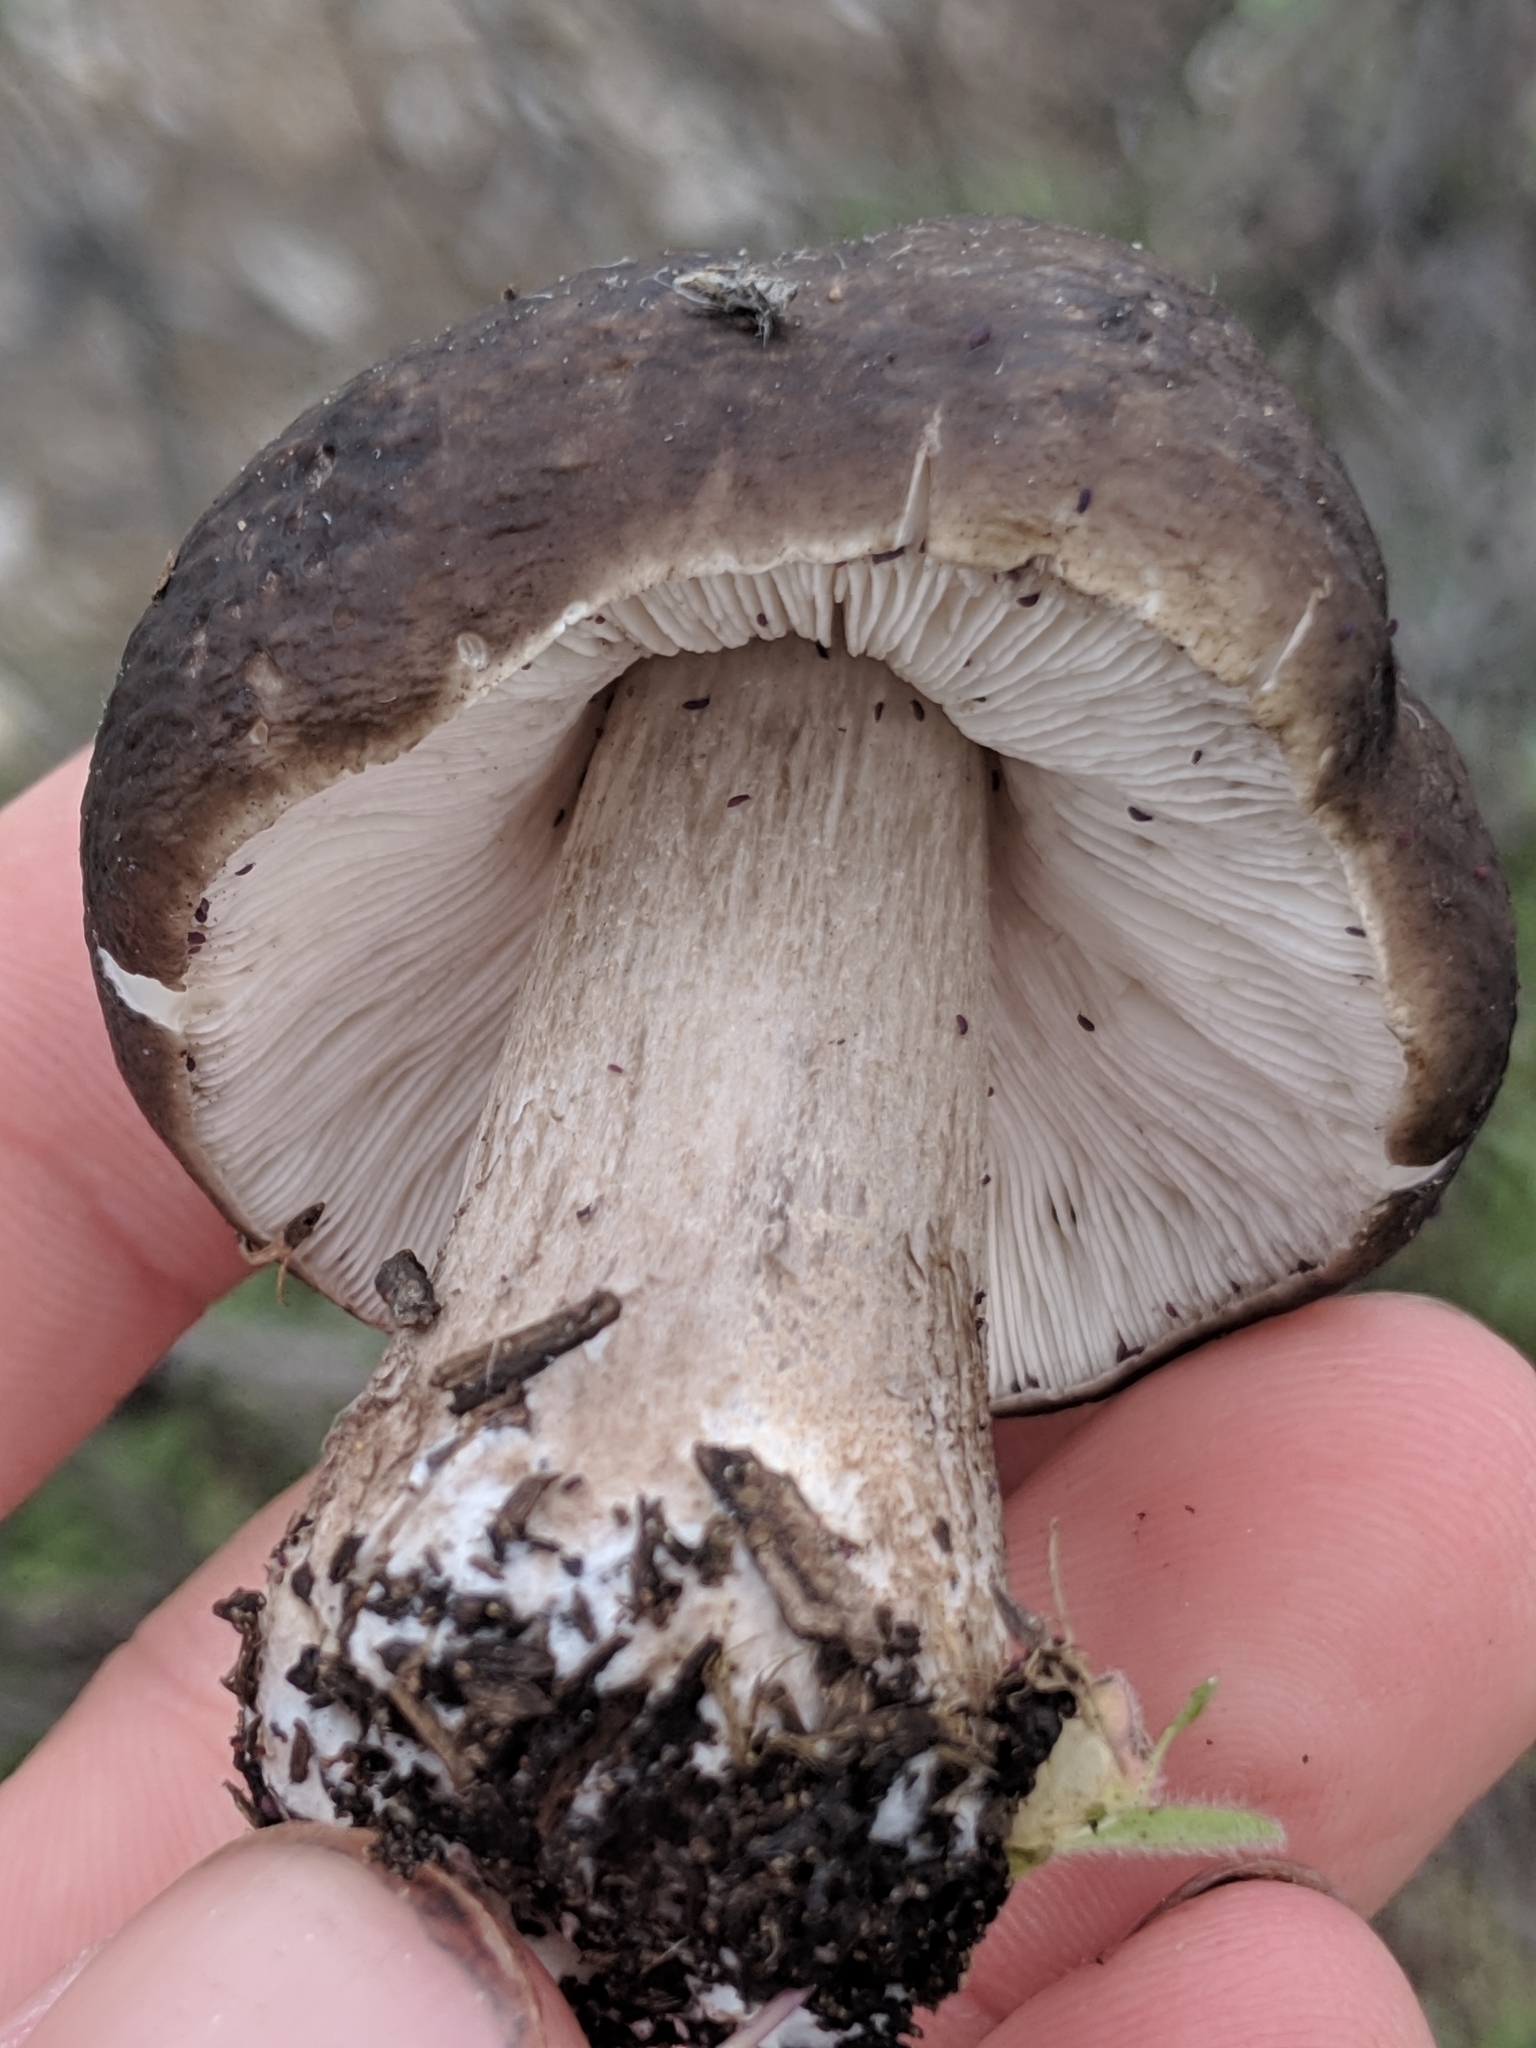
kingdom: Fungi
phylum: Basidiomycota
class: Agaricomycetes
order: Agaricales
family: Pluteaceae
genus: Pluteus
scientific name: Pluteus exilis
